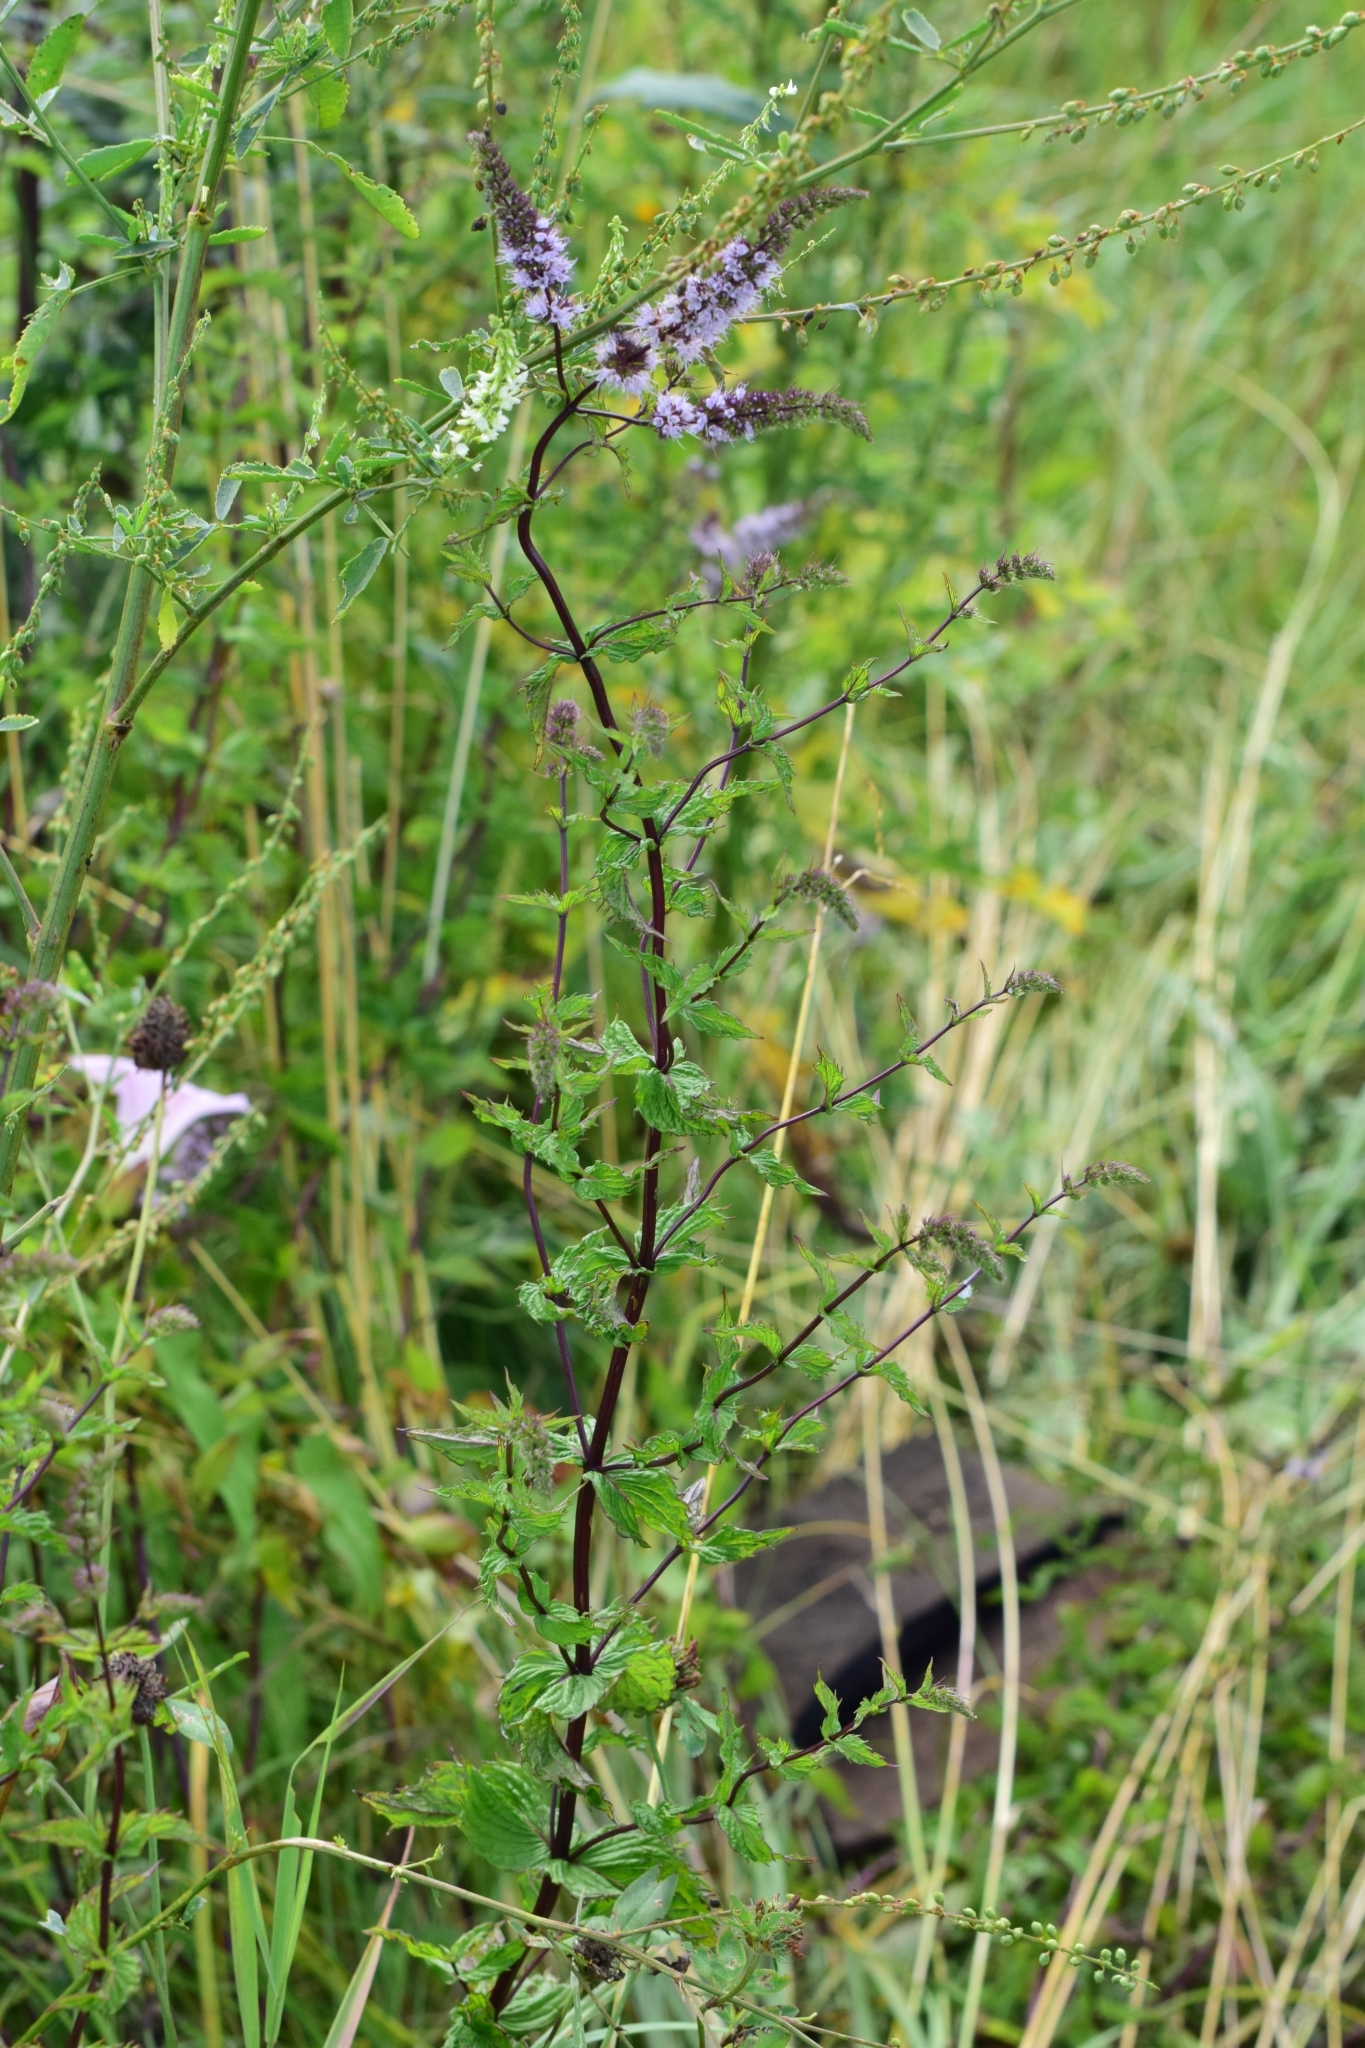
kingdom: Plantae
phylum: Tracheophyta
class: Magnoliopsida
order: Lamiales
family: Lamiaceae
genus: Mentha
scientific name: Mentha spicata
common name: Spearmint
